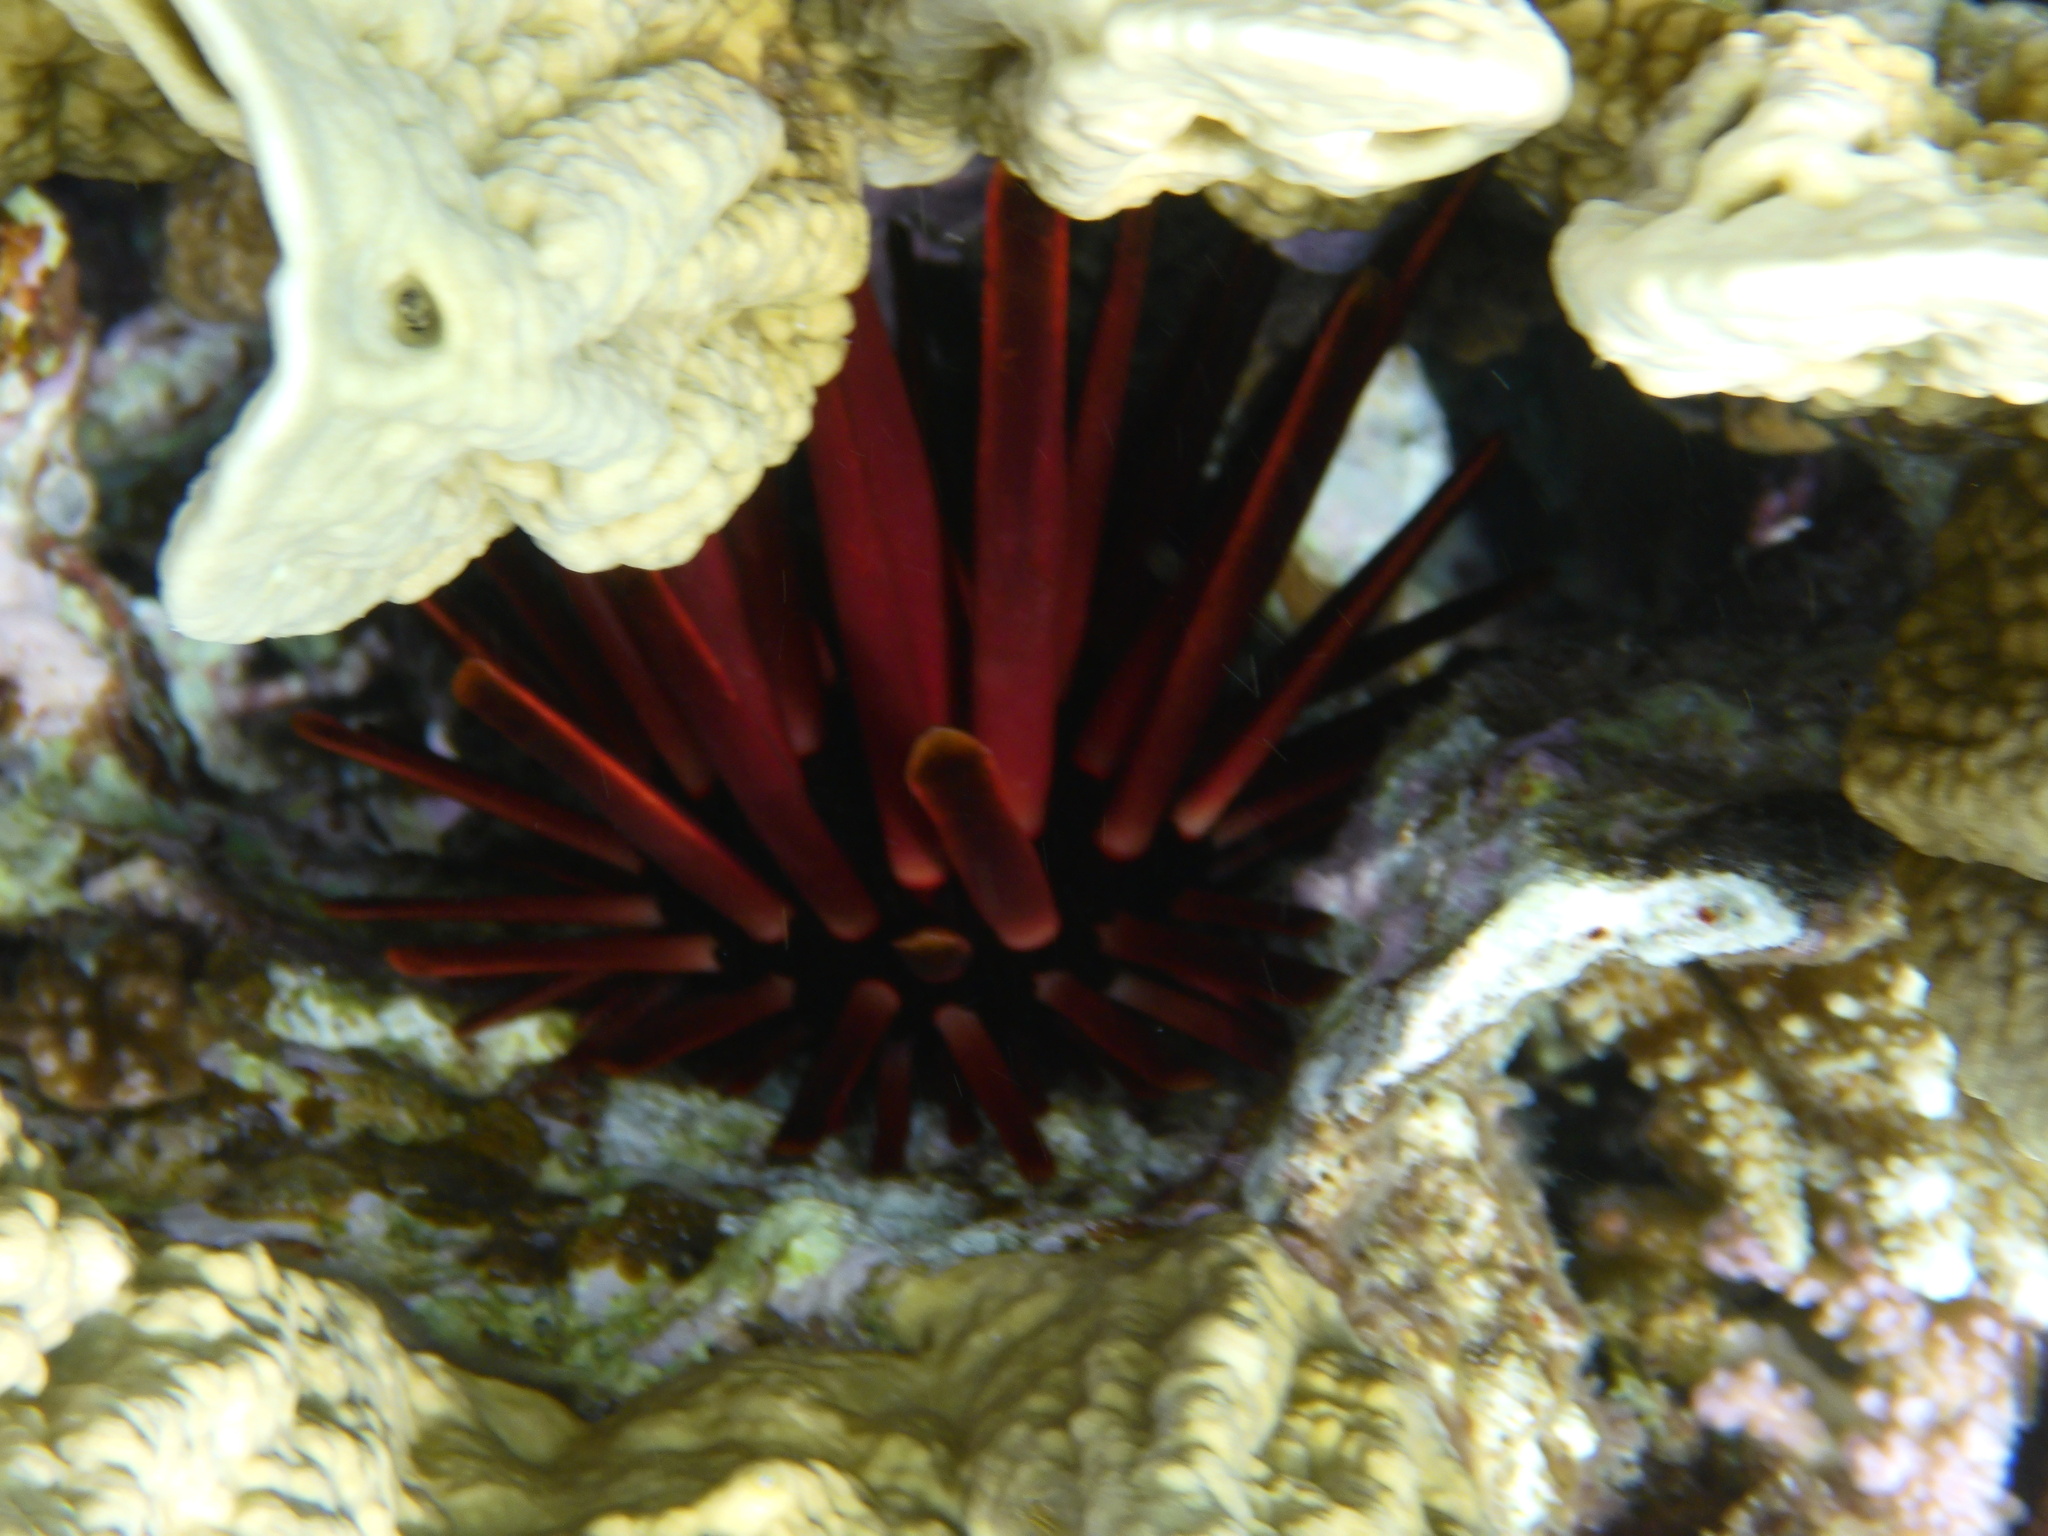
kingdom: Animalia
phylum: Echinodermata
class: Echinoidea
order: Camarodonta
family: Echinometridae
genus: Heterocentrotus
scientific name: Heterocentrotus mamillatus
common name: Slate pencil urchin
